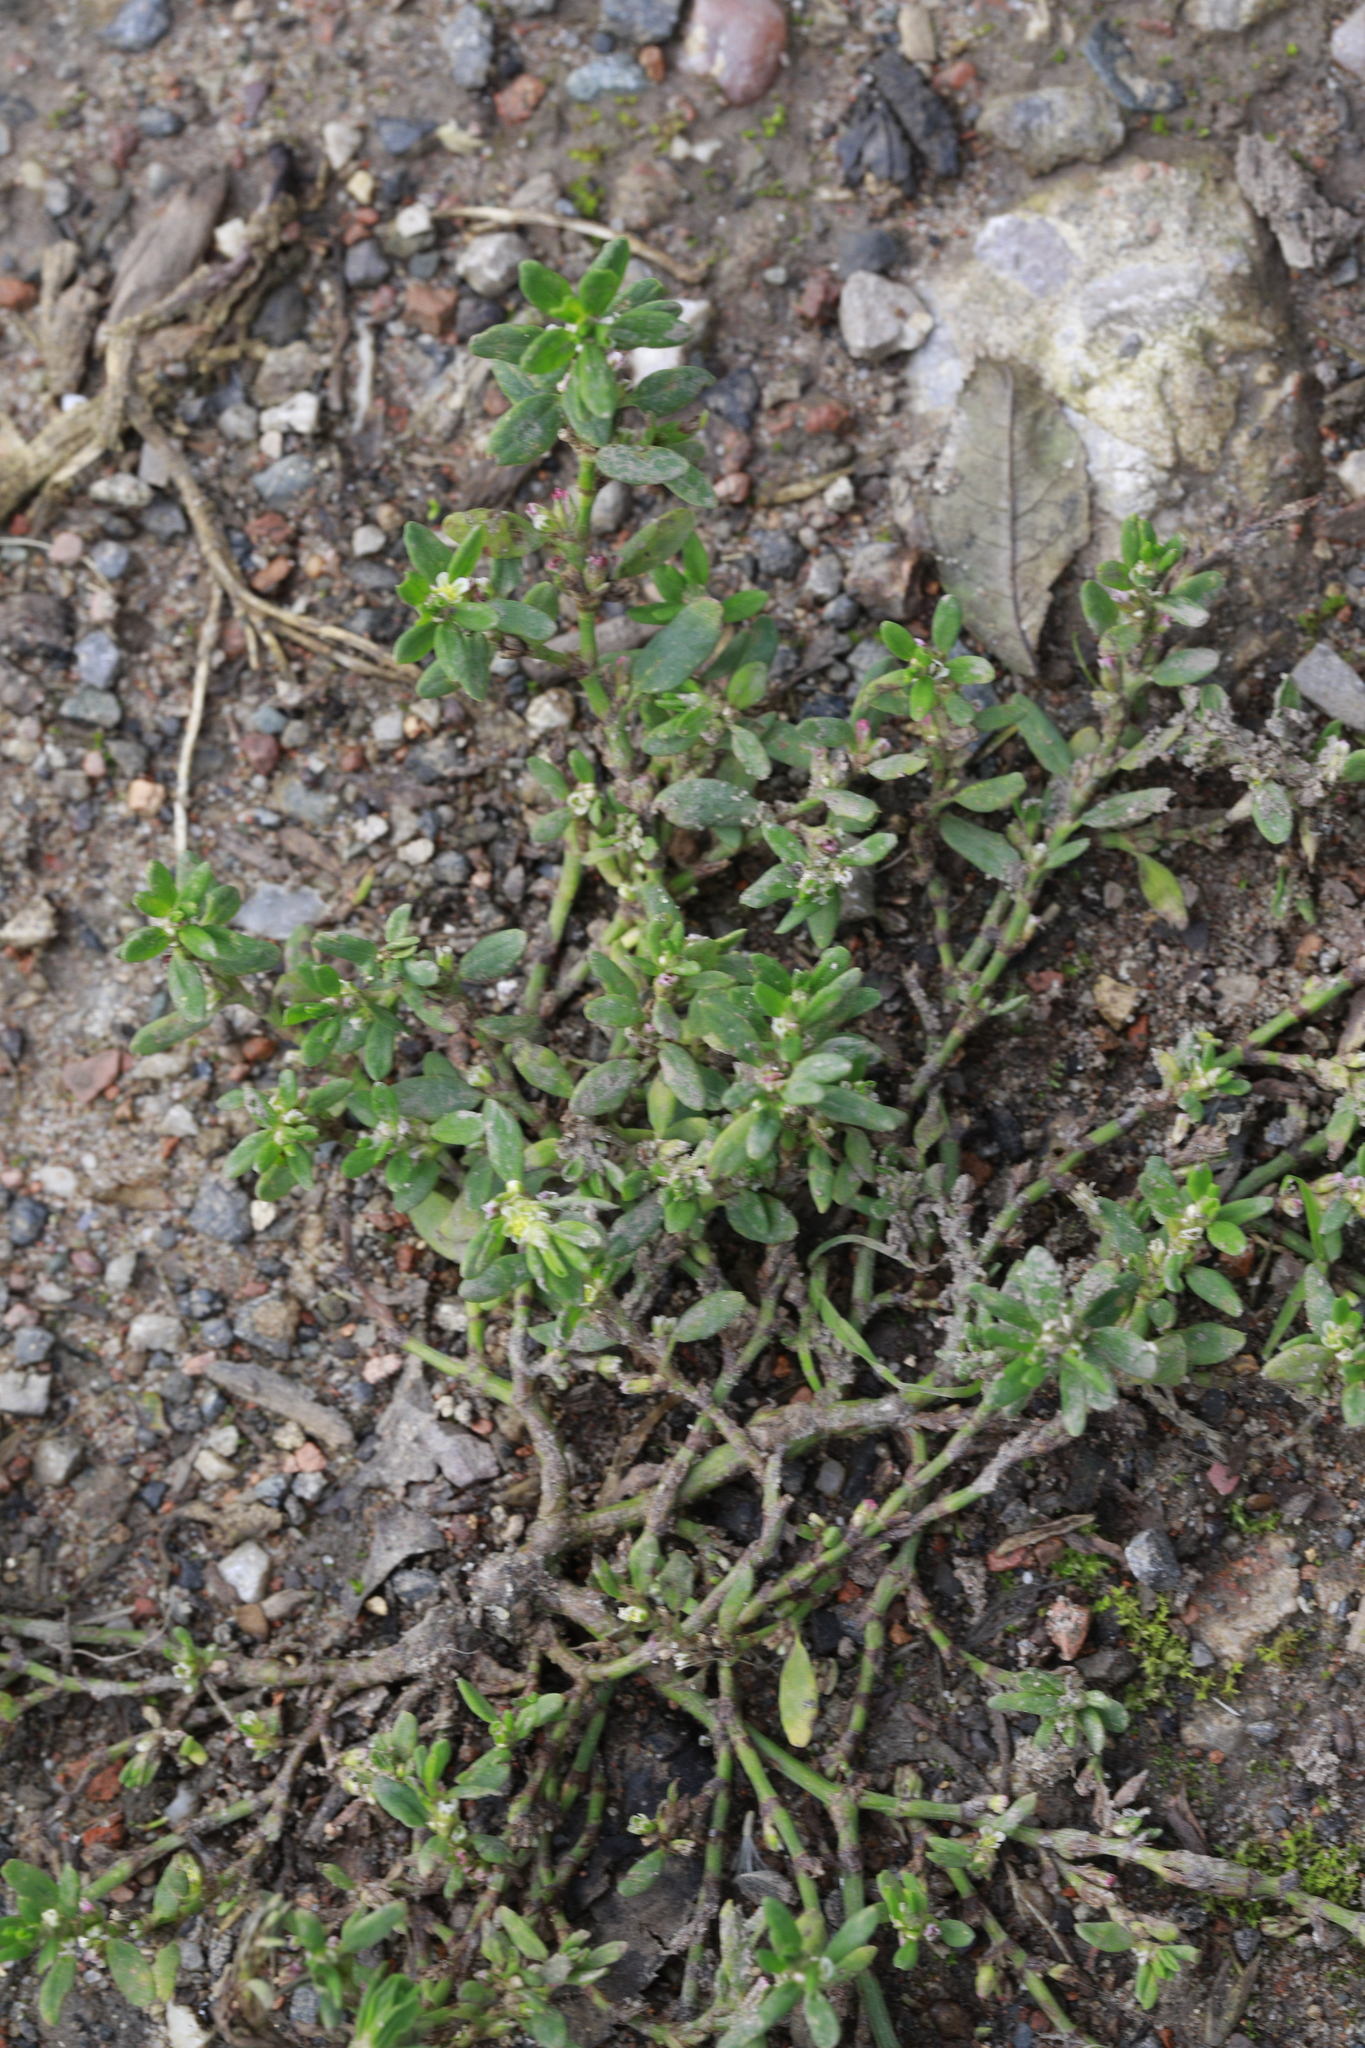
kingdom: Plantae
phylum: Tracheophyta
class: Magnoliopsida
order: Caryophyllales
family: Polygonaceae
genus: Polygonum
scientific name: Polygonum aviculare
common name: Prostrate knotweed
